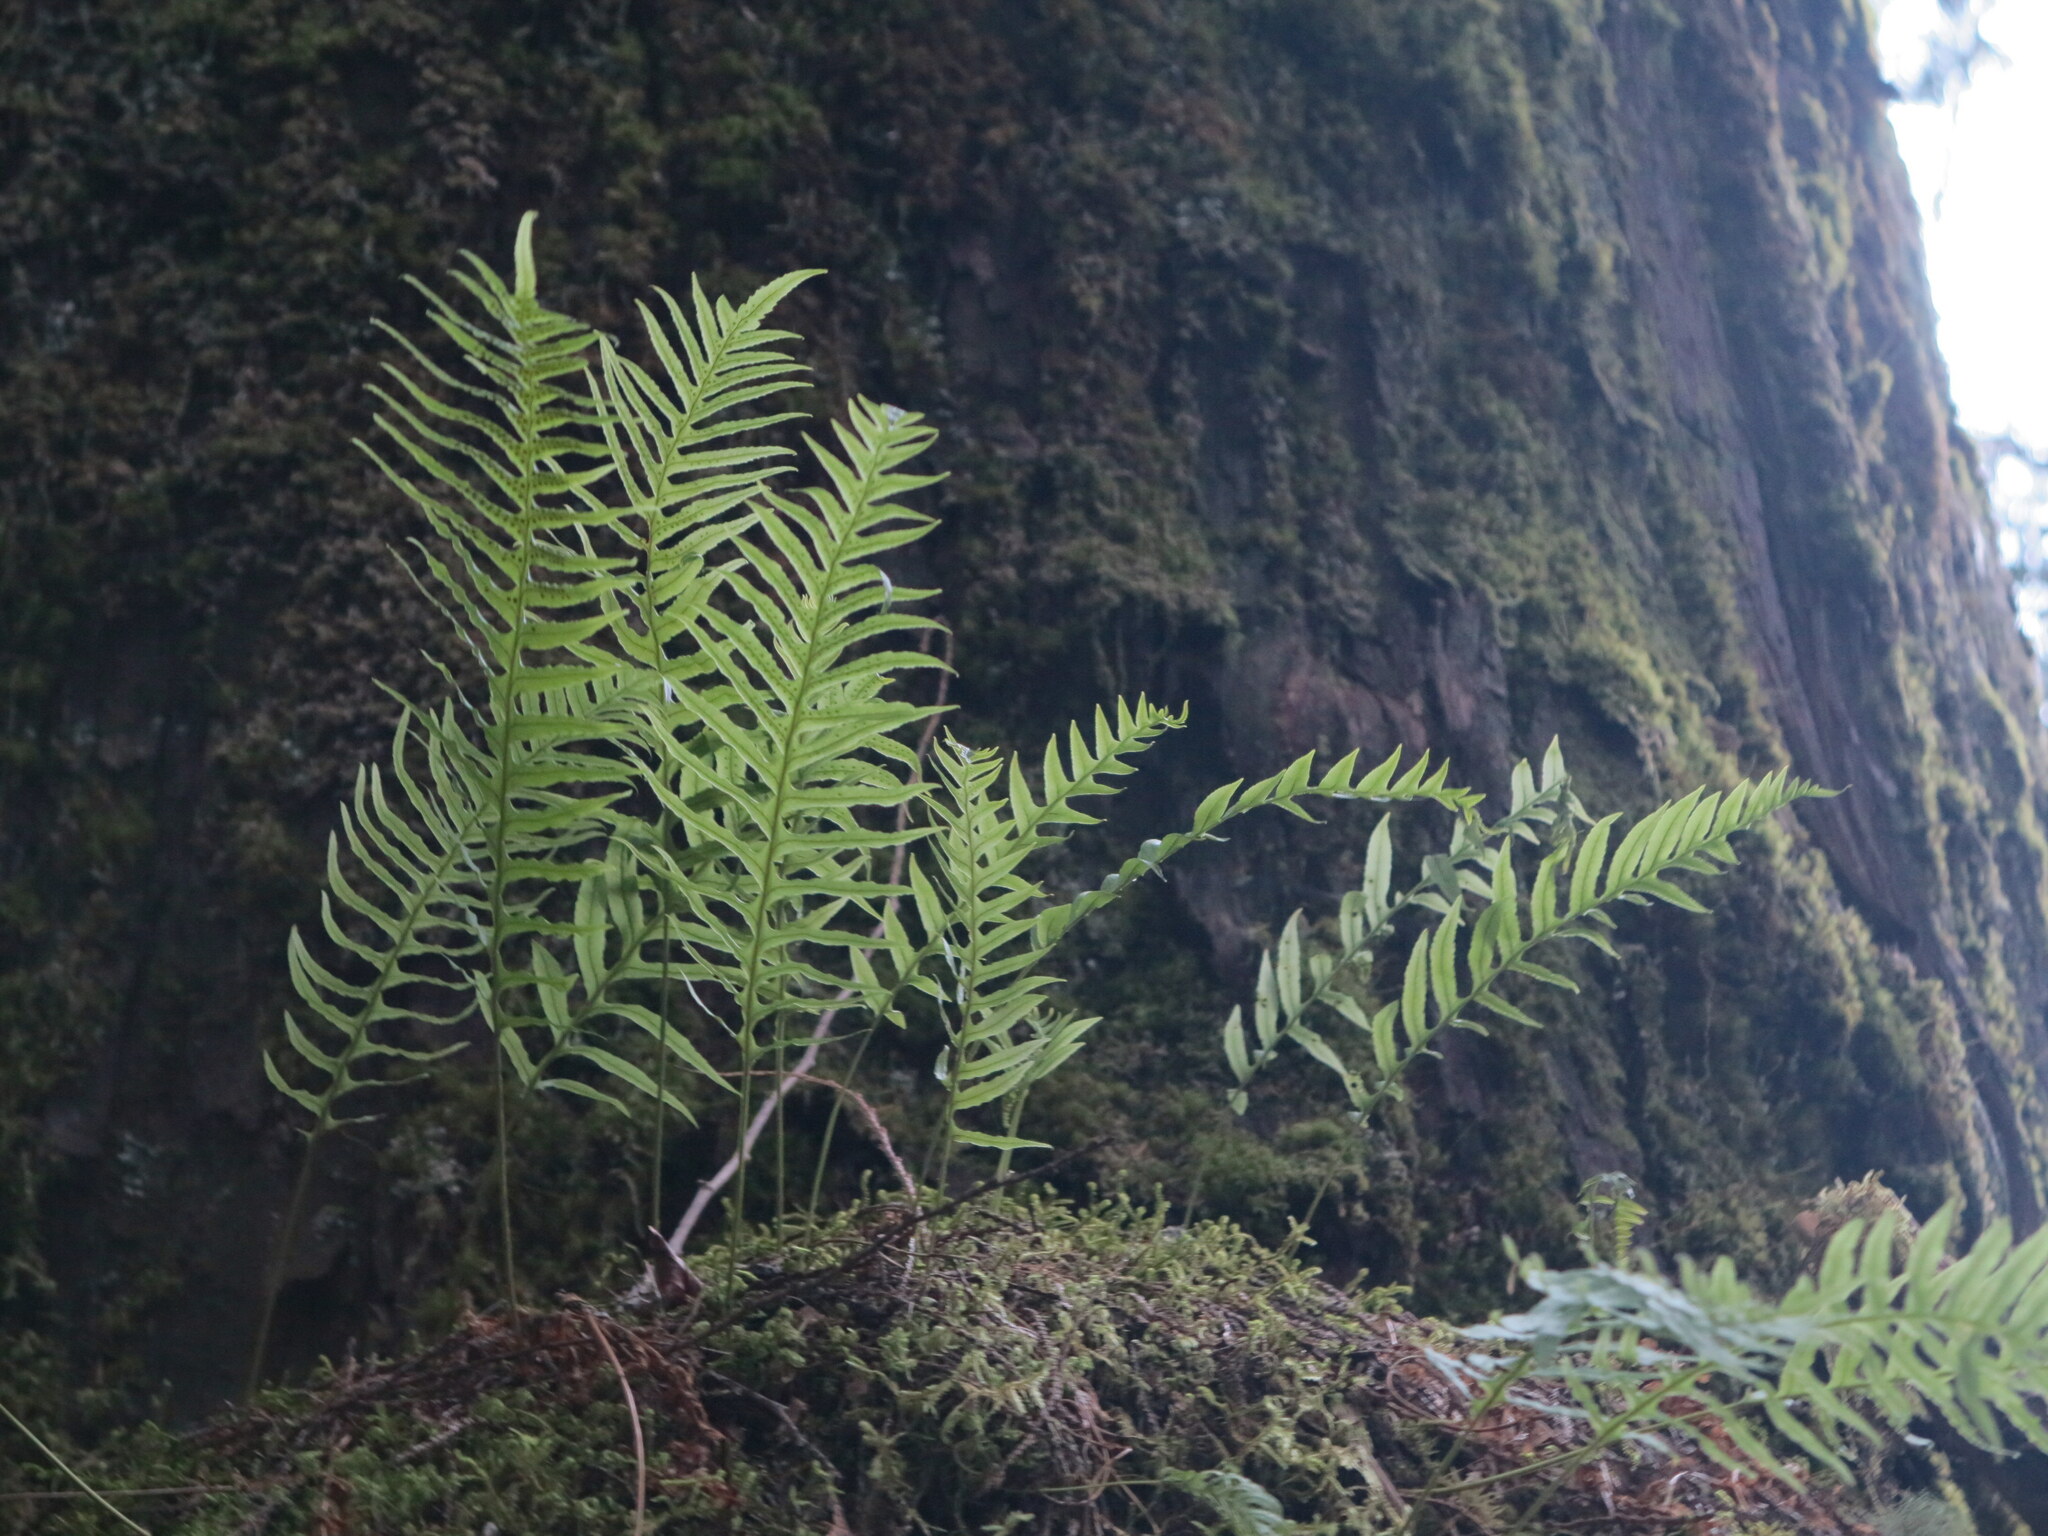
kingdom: Plantae
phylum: Tracheophyta
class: Polypodiopsida
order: Polypodiales
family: Polypodiaceae
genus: Polypodium
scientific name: Polypodium glycyrrhiza
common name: Licorice fern
